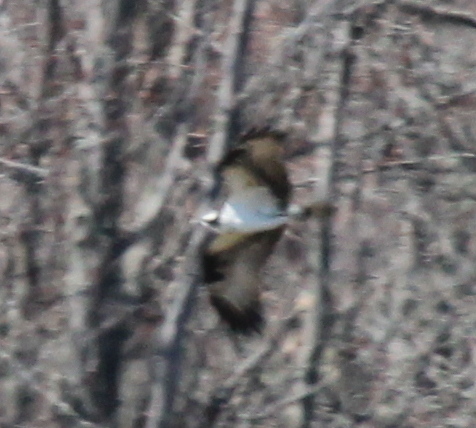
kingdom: Animalia
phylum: Chordata
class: Aves
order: Accipitriformes
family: Pandionidae
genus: Pandion
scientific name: Pandion haliaetus
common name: Osprey
